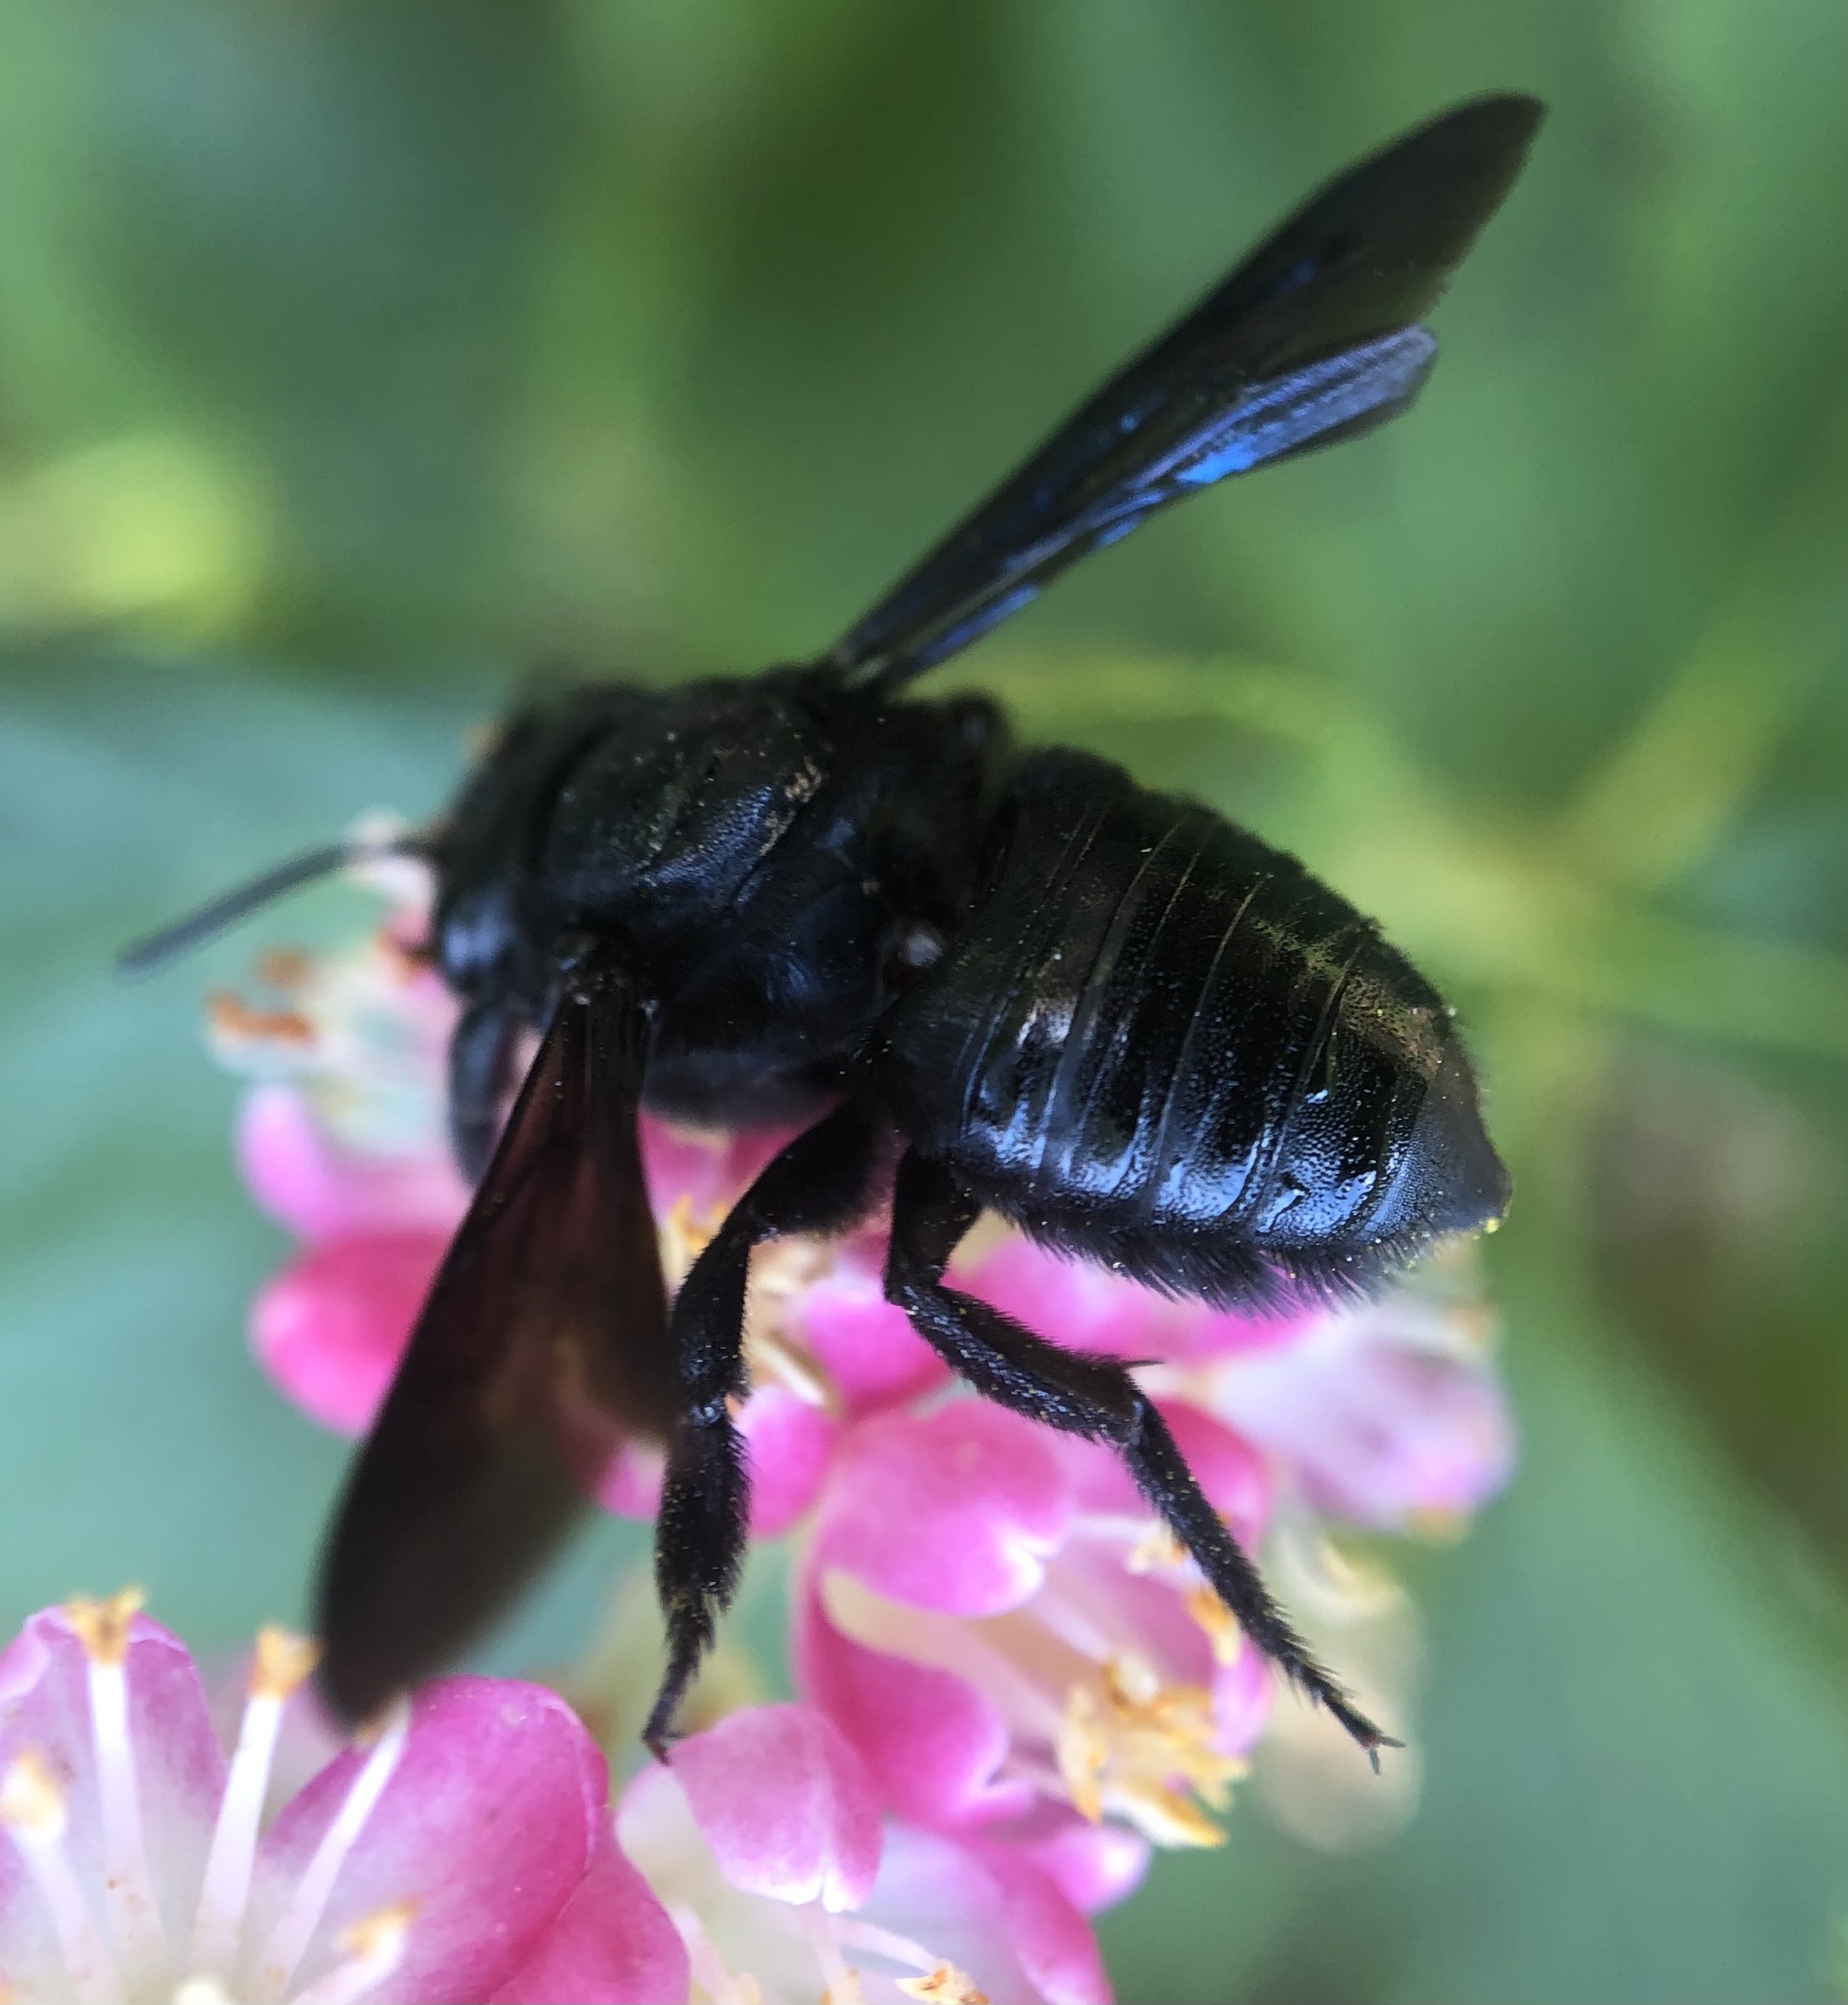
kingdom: Animalia
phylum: Arthropoda
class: Insecta
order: Hymenoptera
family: Megachilidae
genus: Megachile
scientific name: Megachile xylocopoides
